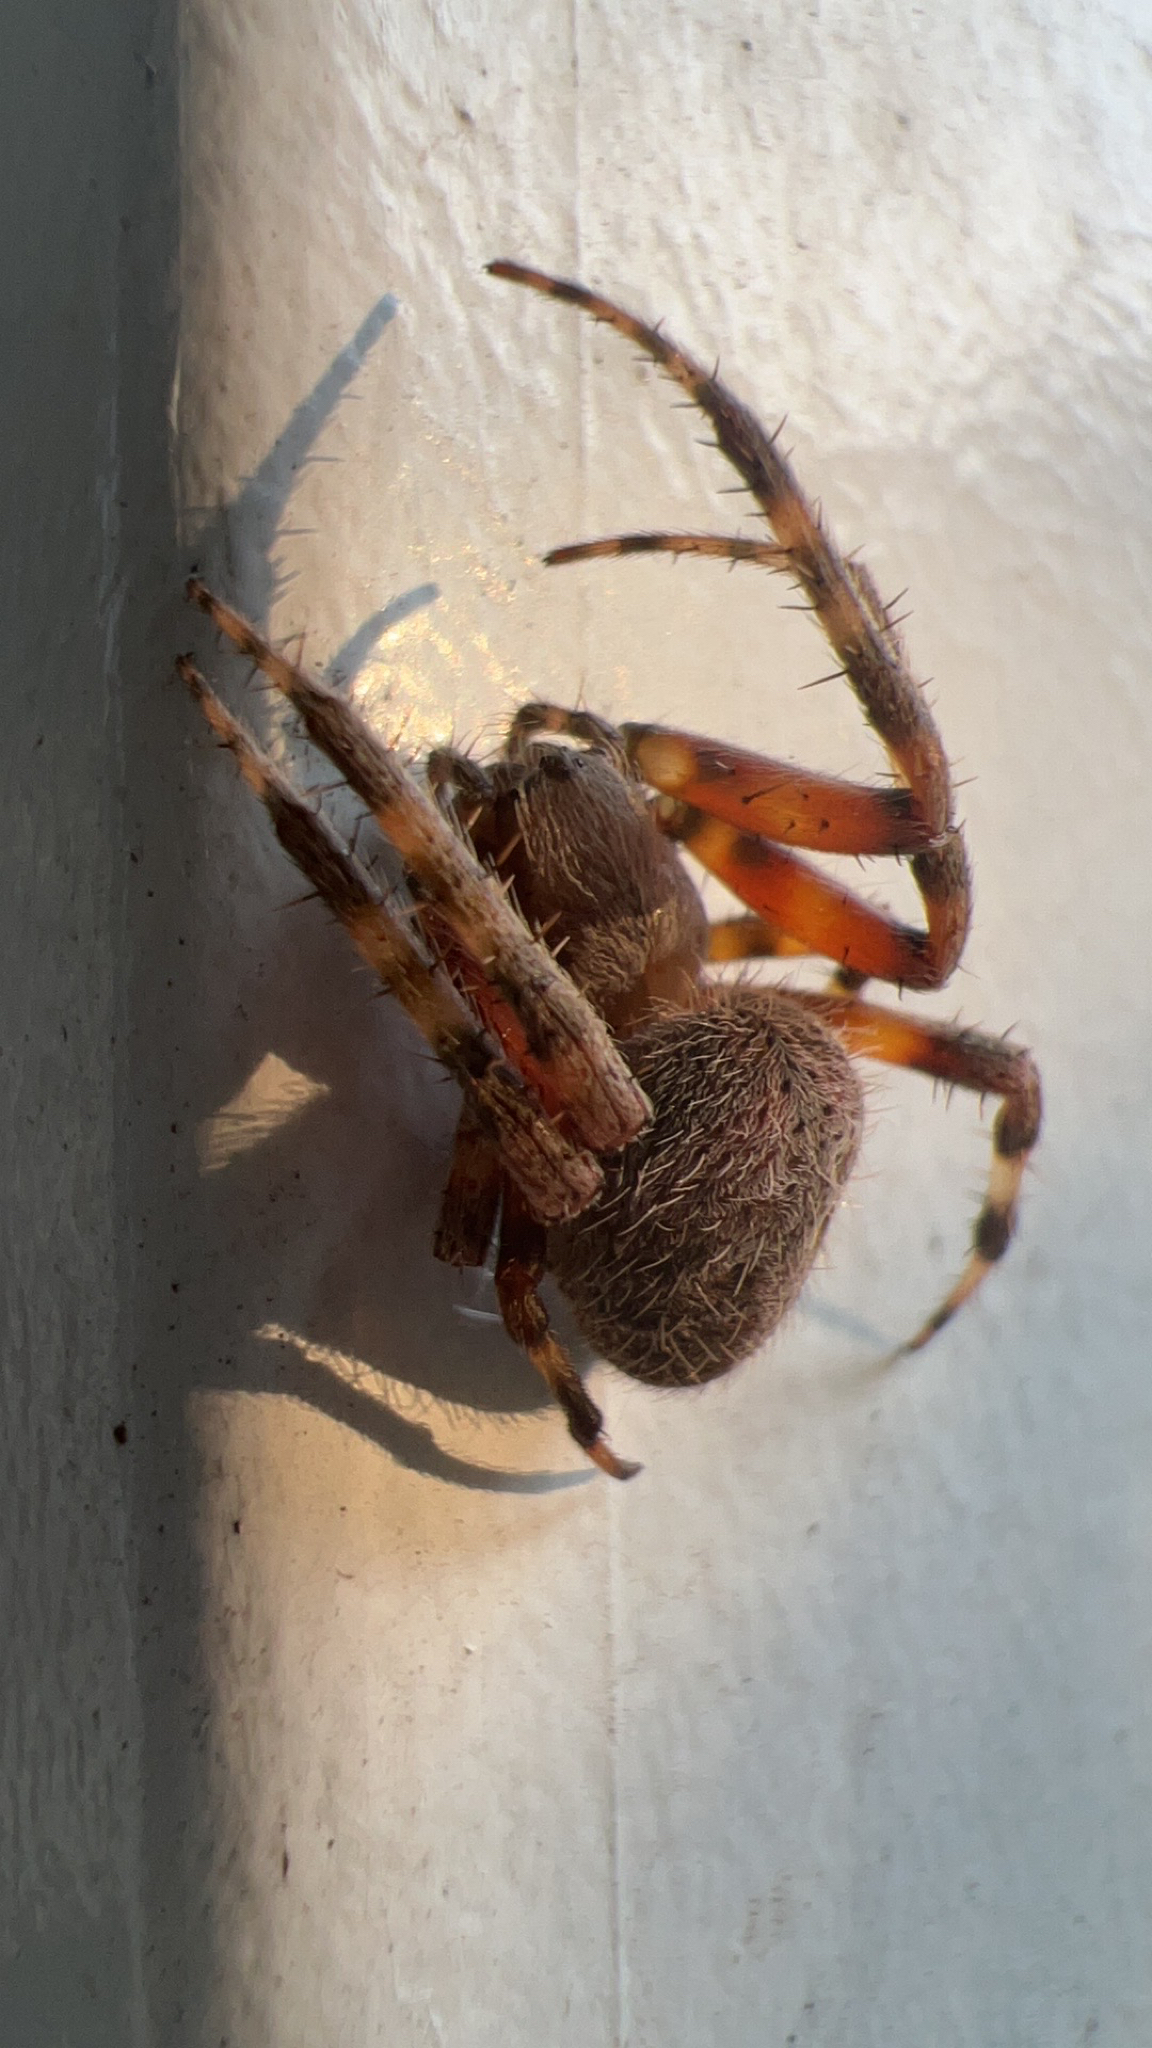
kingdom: Animalia
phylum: Arthropoda
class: Arachnida
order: Araneae
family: Araneidae
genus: Neoscona
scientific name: Neoscona crucifera
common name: Spotted orbweaver
